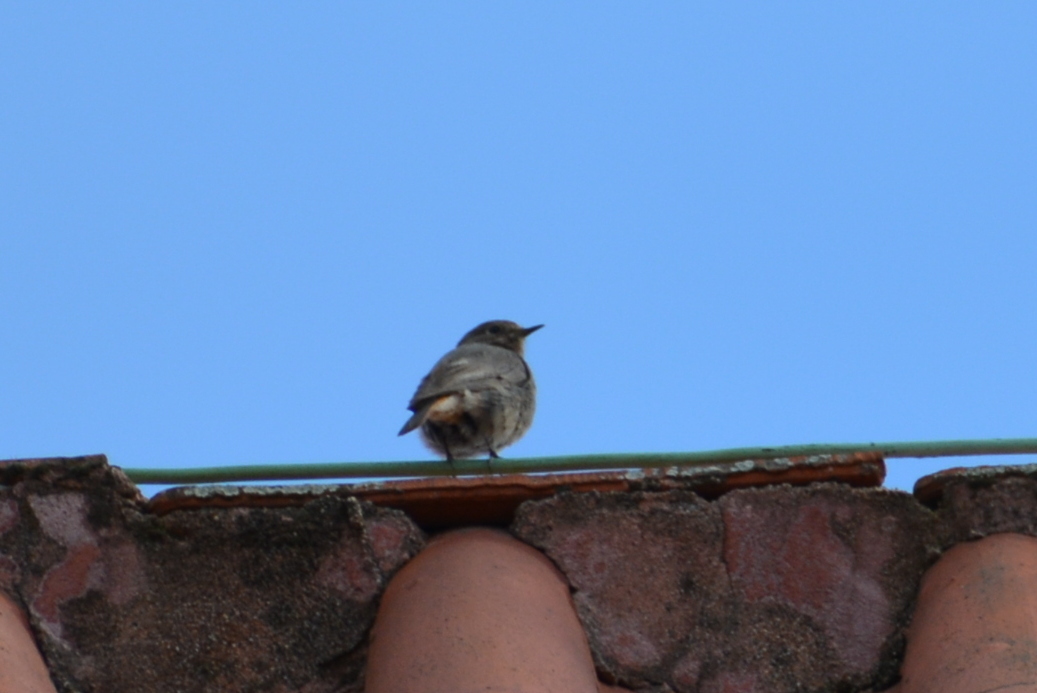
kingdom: Animalia
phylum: Chordata
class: Aves
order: Passeriformes
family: Muscicapidae
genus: Phoenicurus
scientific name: Phoenicurus ochruros
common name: Black redstart
